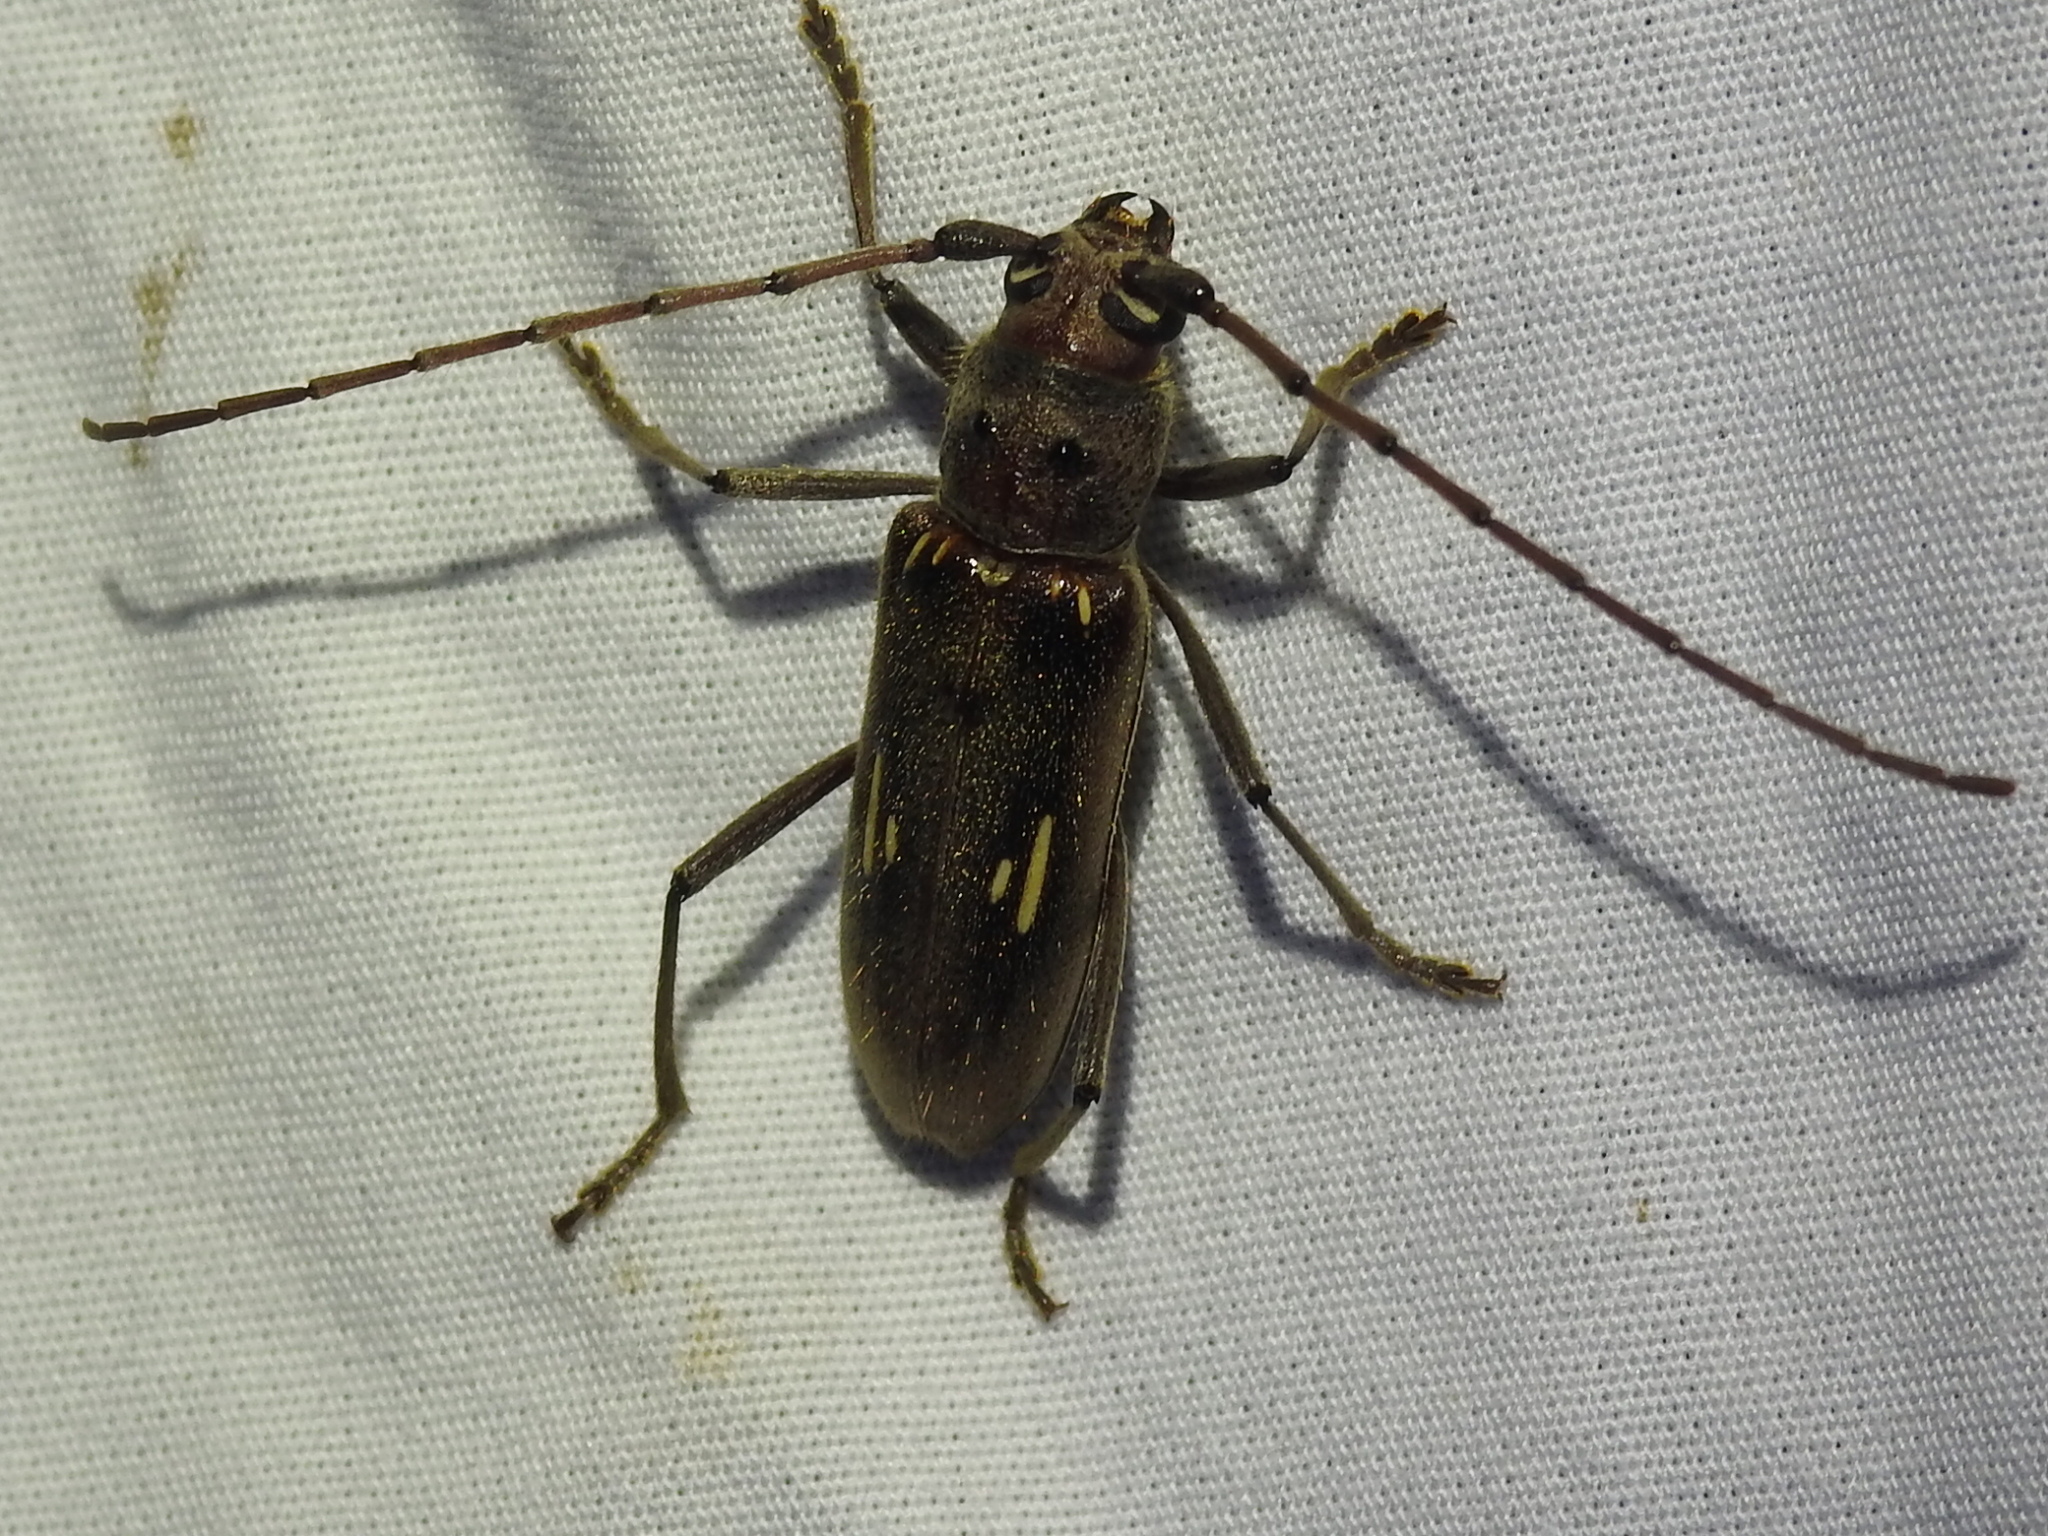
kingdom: Animalia
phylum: Arthropoda
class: Insecta
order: Coleoptera
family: Cerambycidae
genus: Eburia
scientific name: Eburia ovicollis
